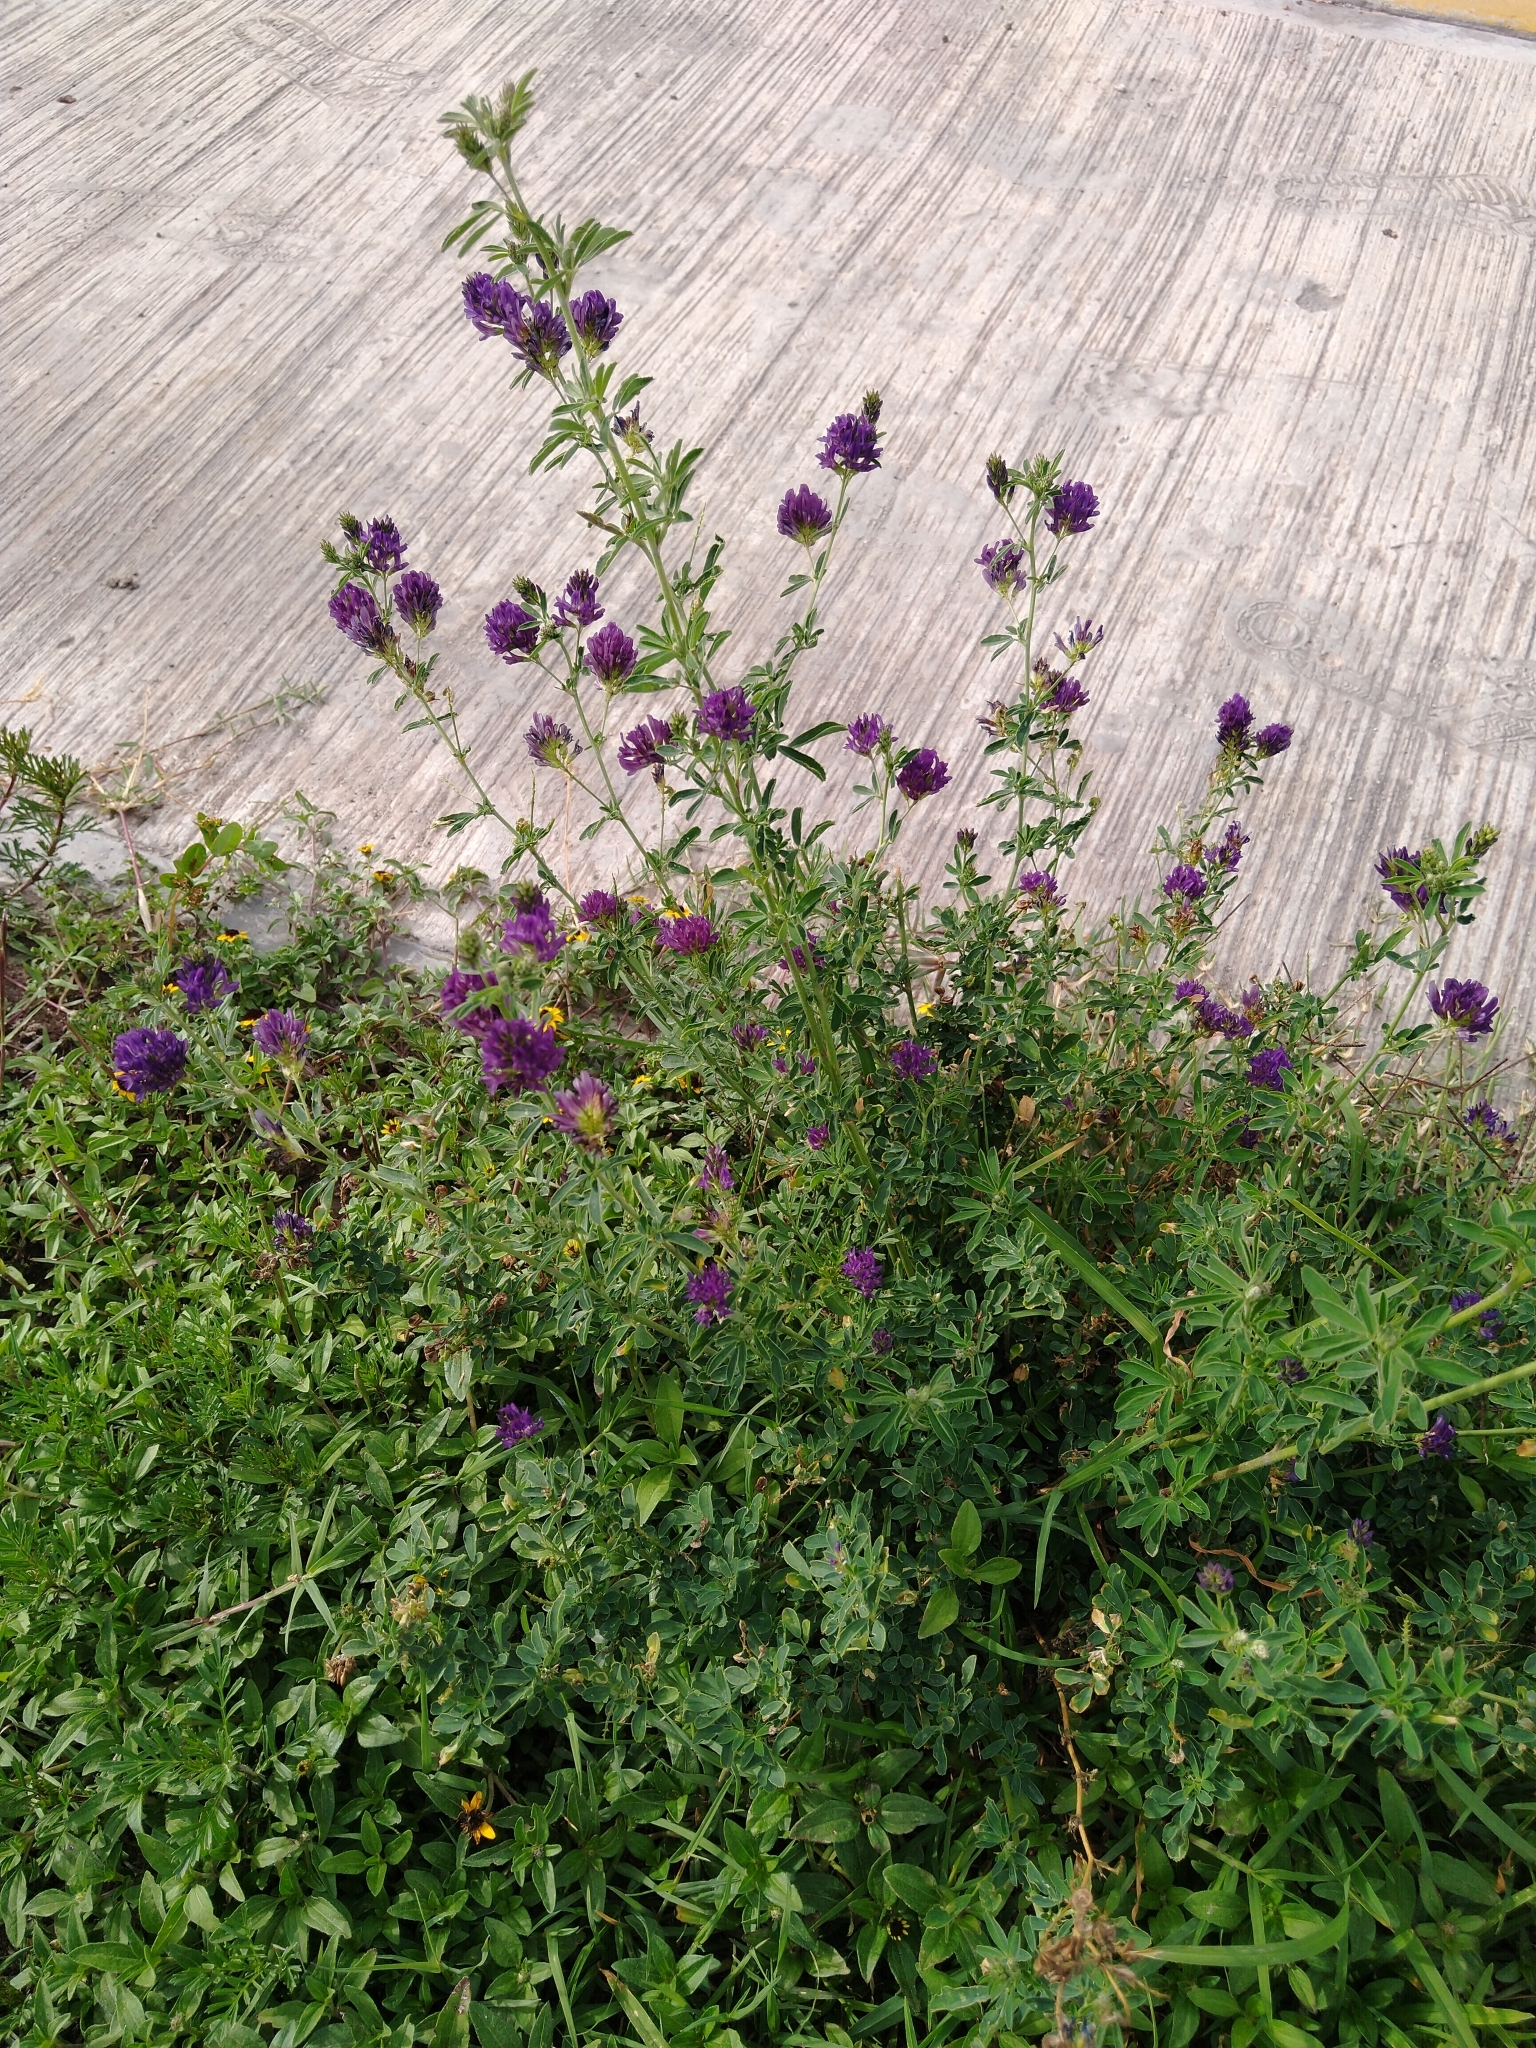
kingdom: Plantae
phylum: Tracheophyta
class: Magnoliopsida
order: Fabales
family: Fabaceae
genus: Medicago
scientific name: Medicago sativa
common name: Alfalfa
